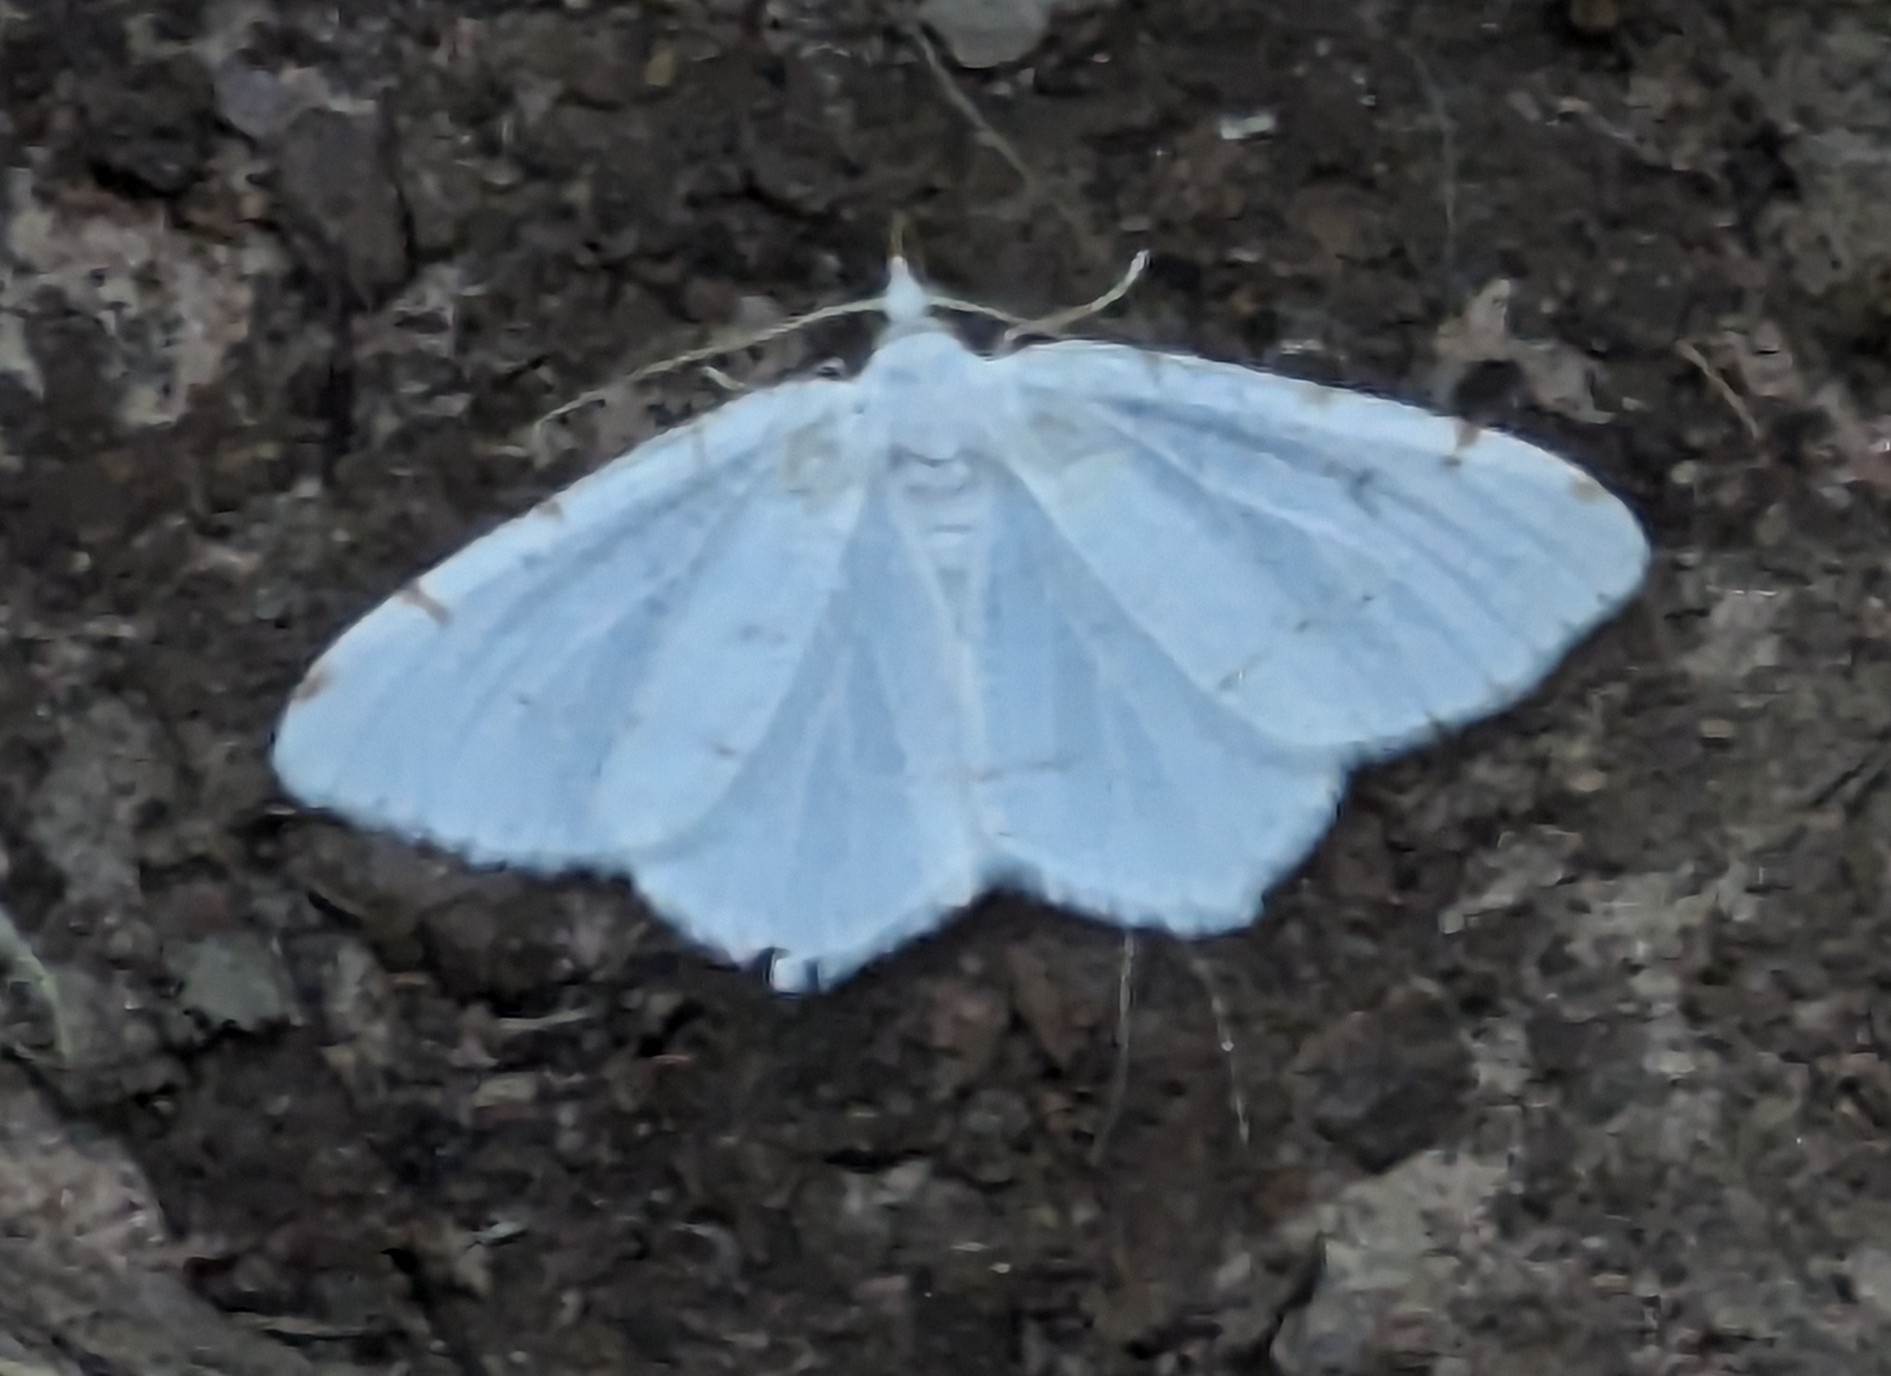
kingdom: Animalia
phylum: Arthropoda
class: Insecta
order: Lepidoptera
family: Geometridae
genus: Macaria
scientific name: Macaria pustularia
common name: Lesser maple spanworm moth
